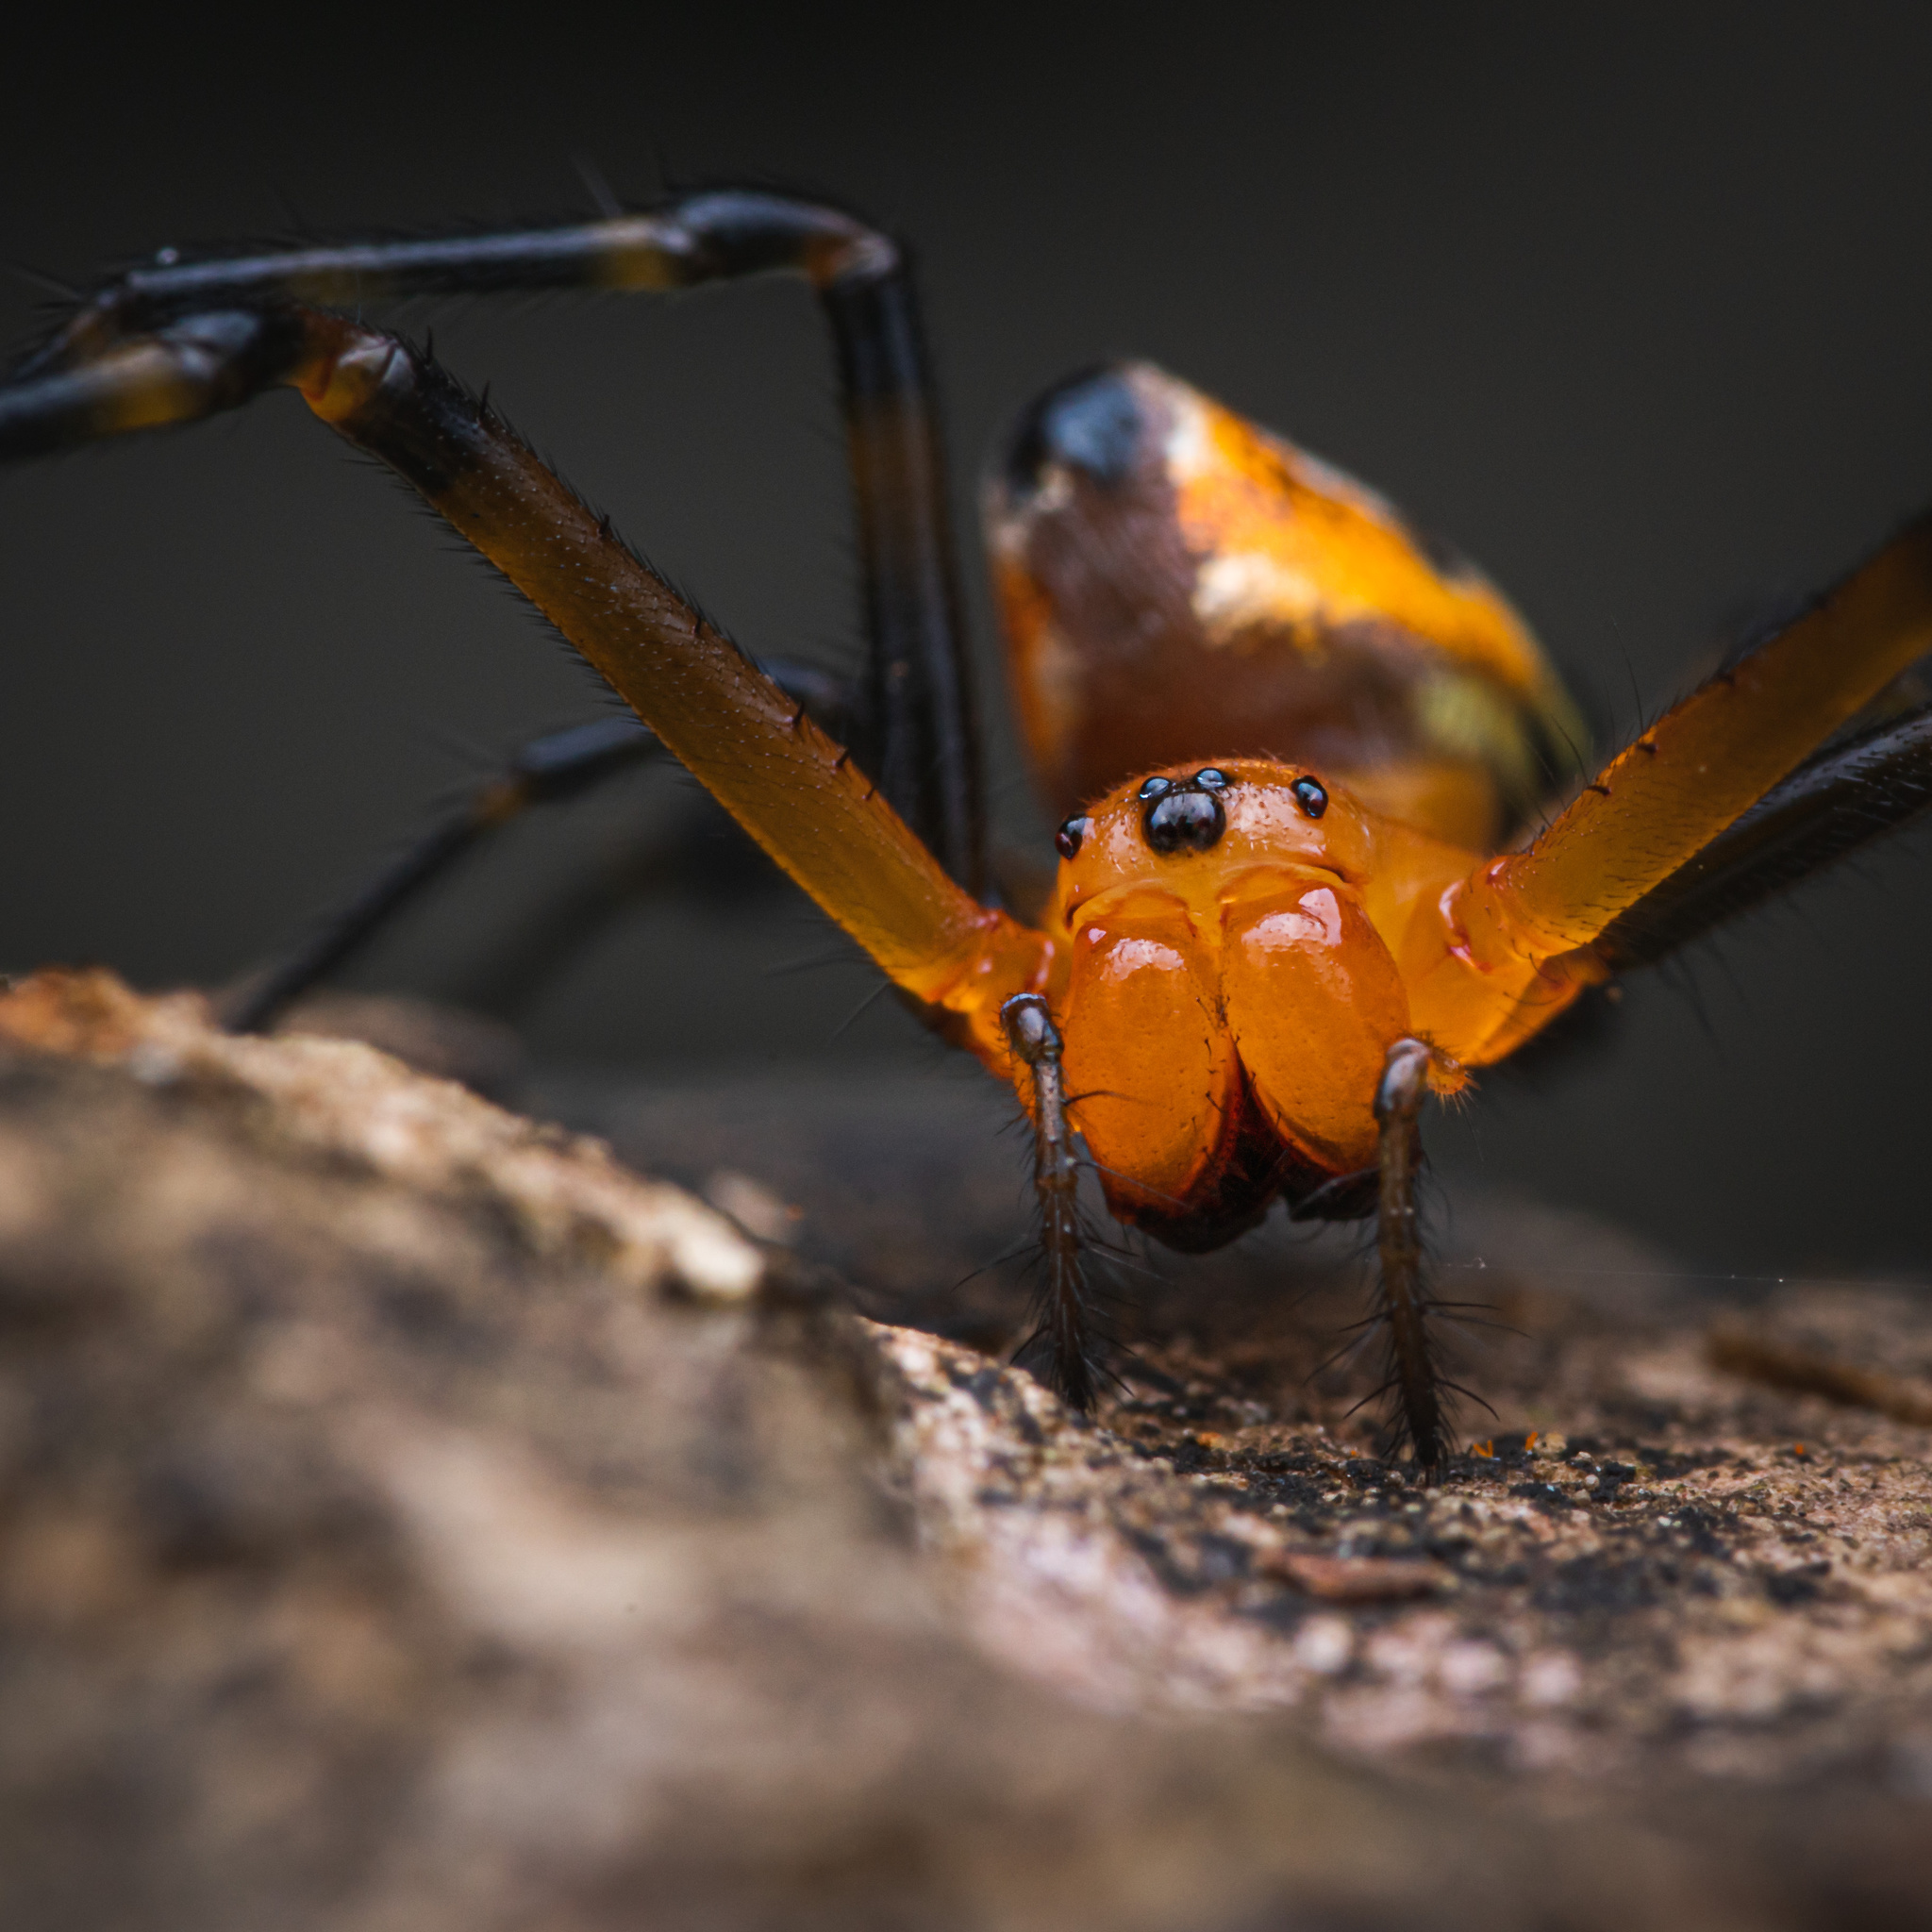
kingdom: Animalia
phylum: Arthropoda
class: Arachnida
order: Araneae
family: Tetragnathidae
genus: Leucauge
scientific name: Leucauge fastigata
